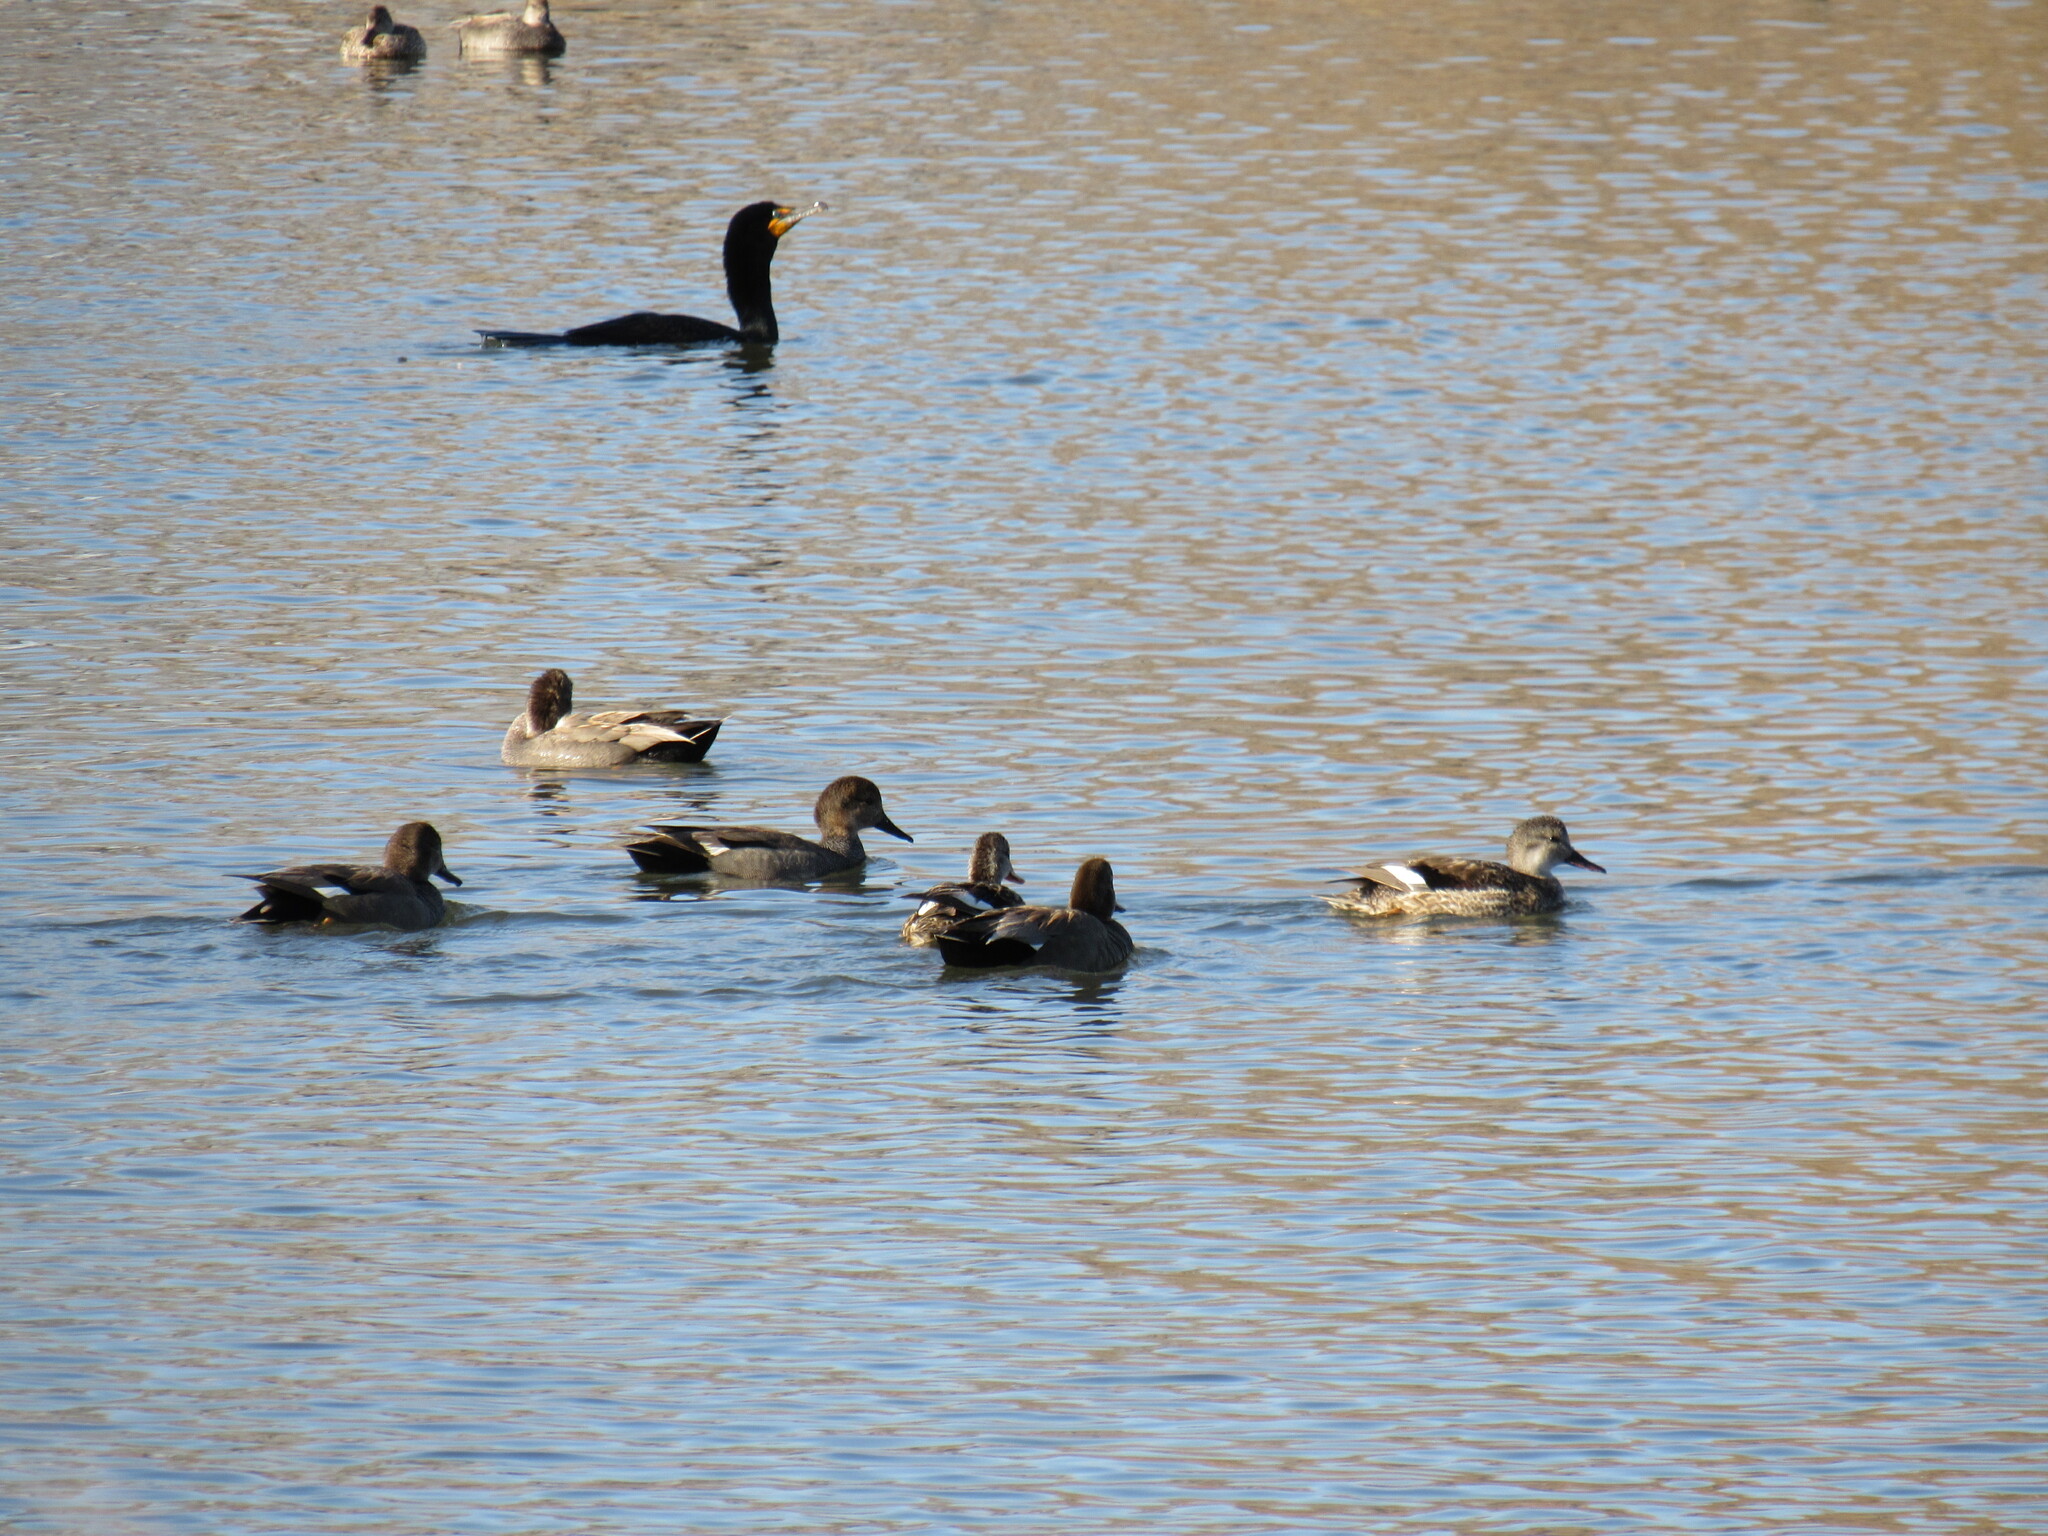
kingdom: Animalia
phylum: Chordata
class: Aves
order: Anseriformes
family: Anatidae
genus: Mareca
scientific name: Mareca strepera
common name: Gadwall
